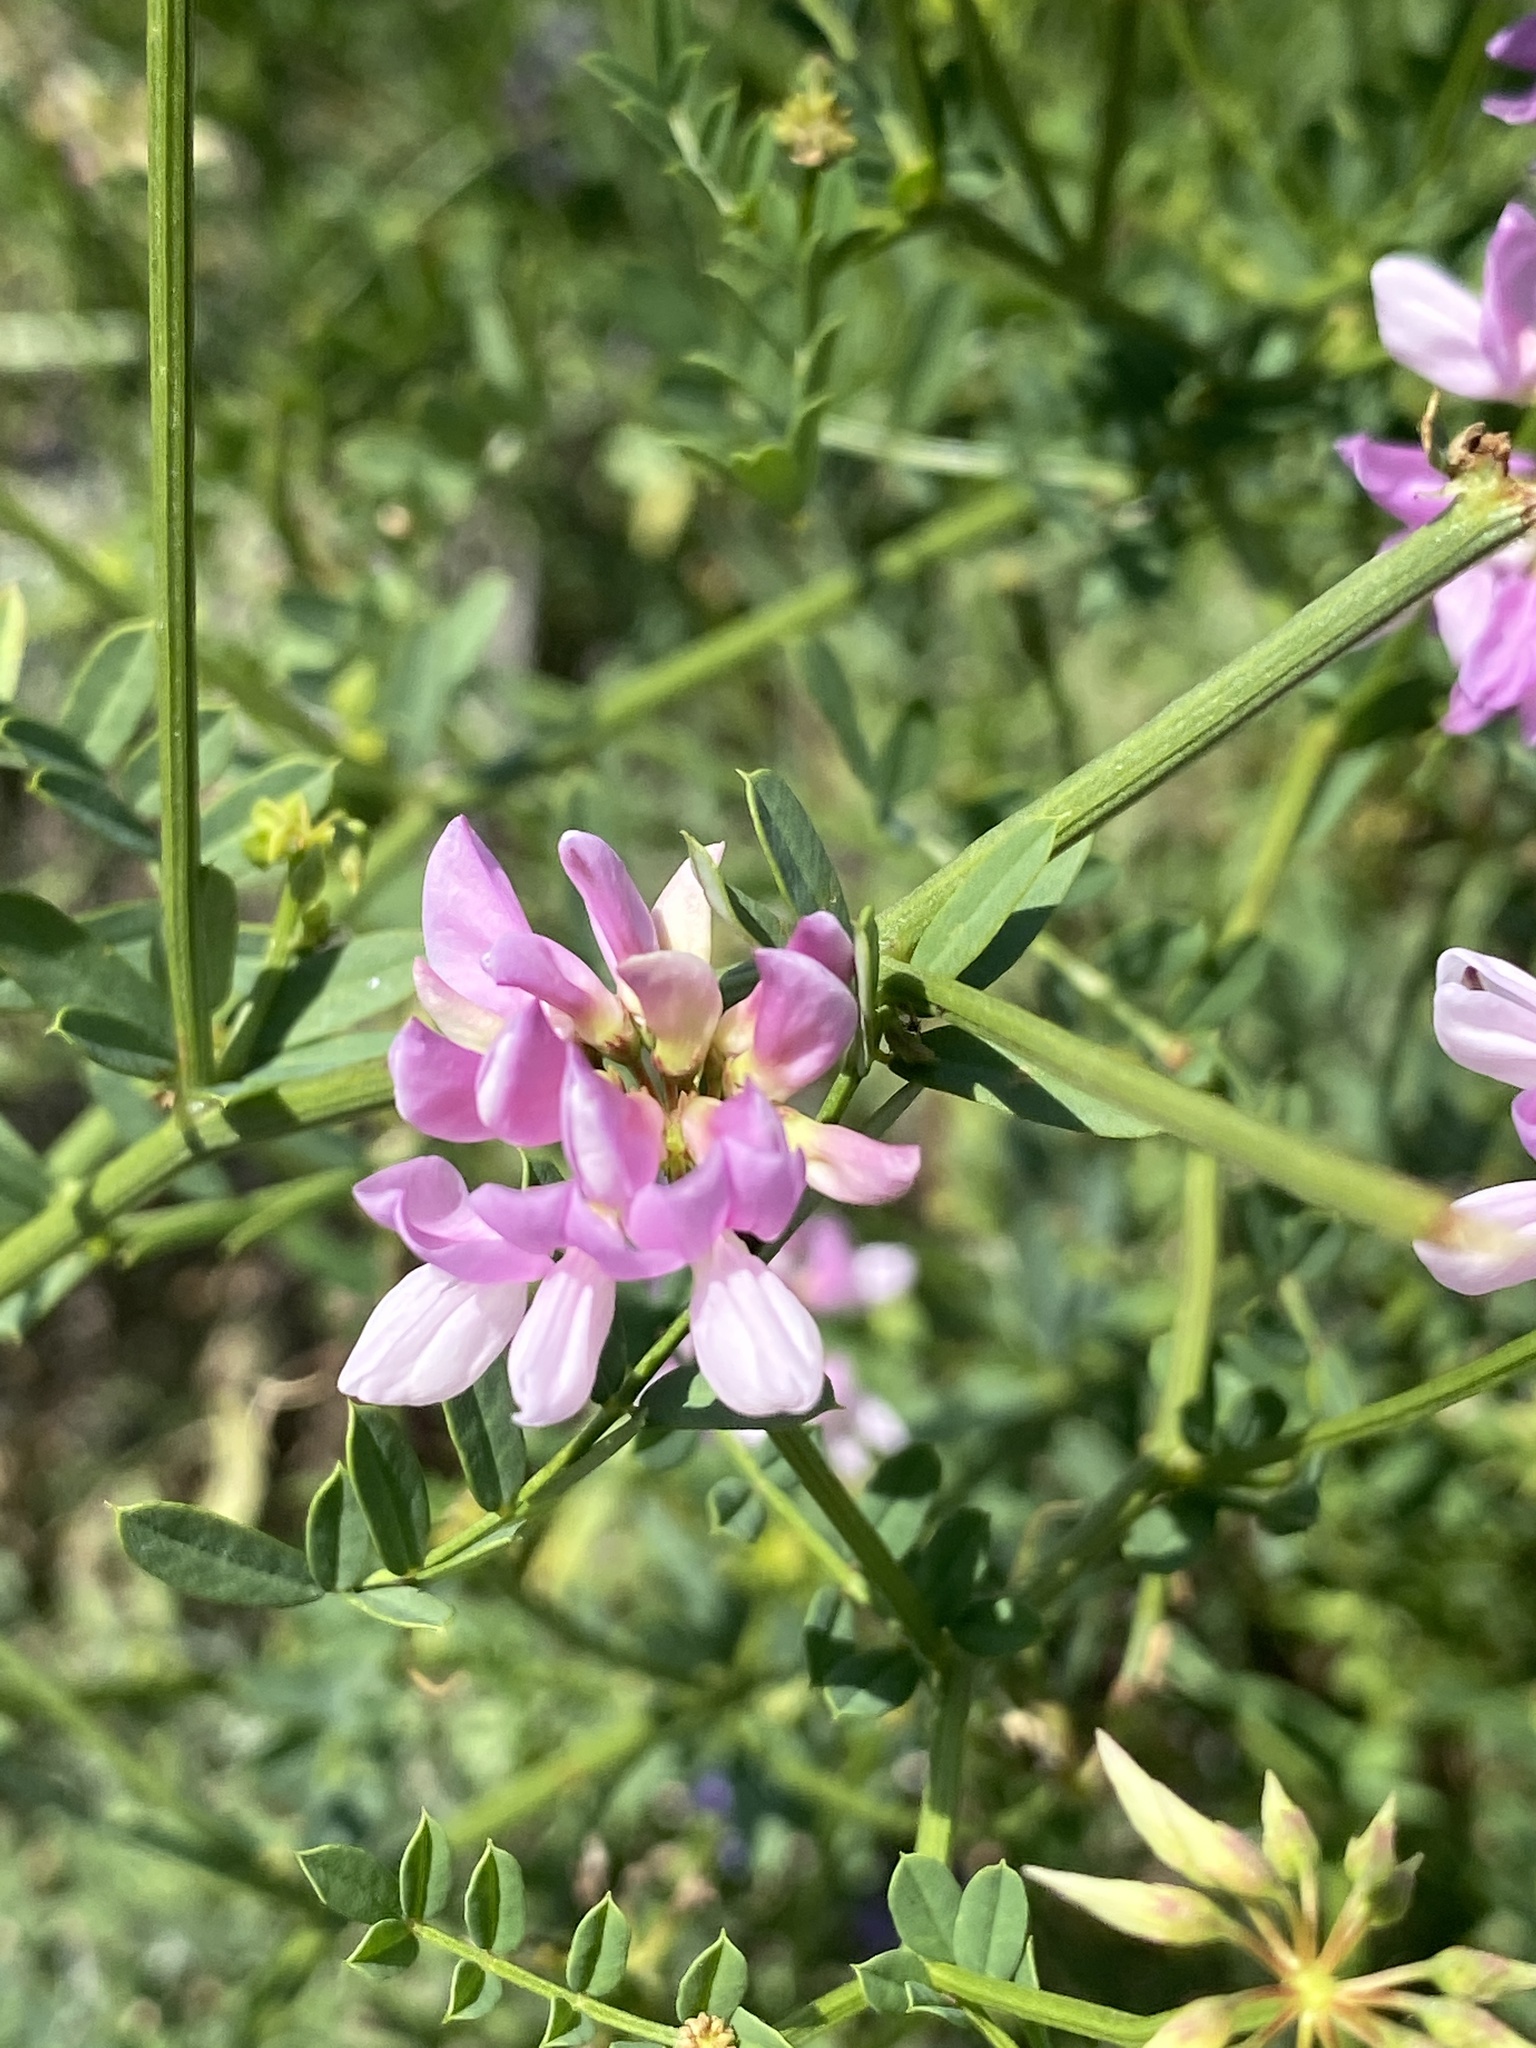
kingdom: Plantae
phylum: Tracheophyta
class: Magnoliopsida
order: Fabales
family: Fabaceae
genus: Coronilla
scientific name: Coronilla varia
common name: Crownvetch
